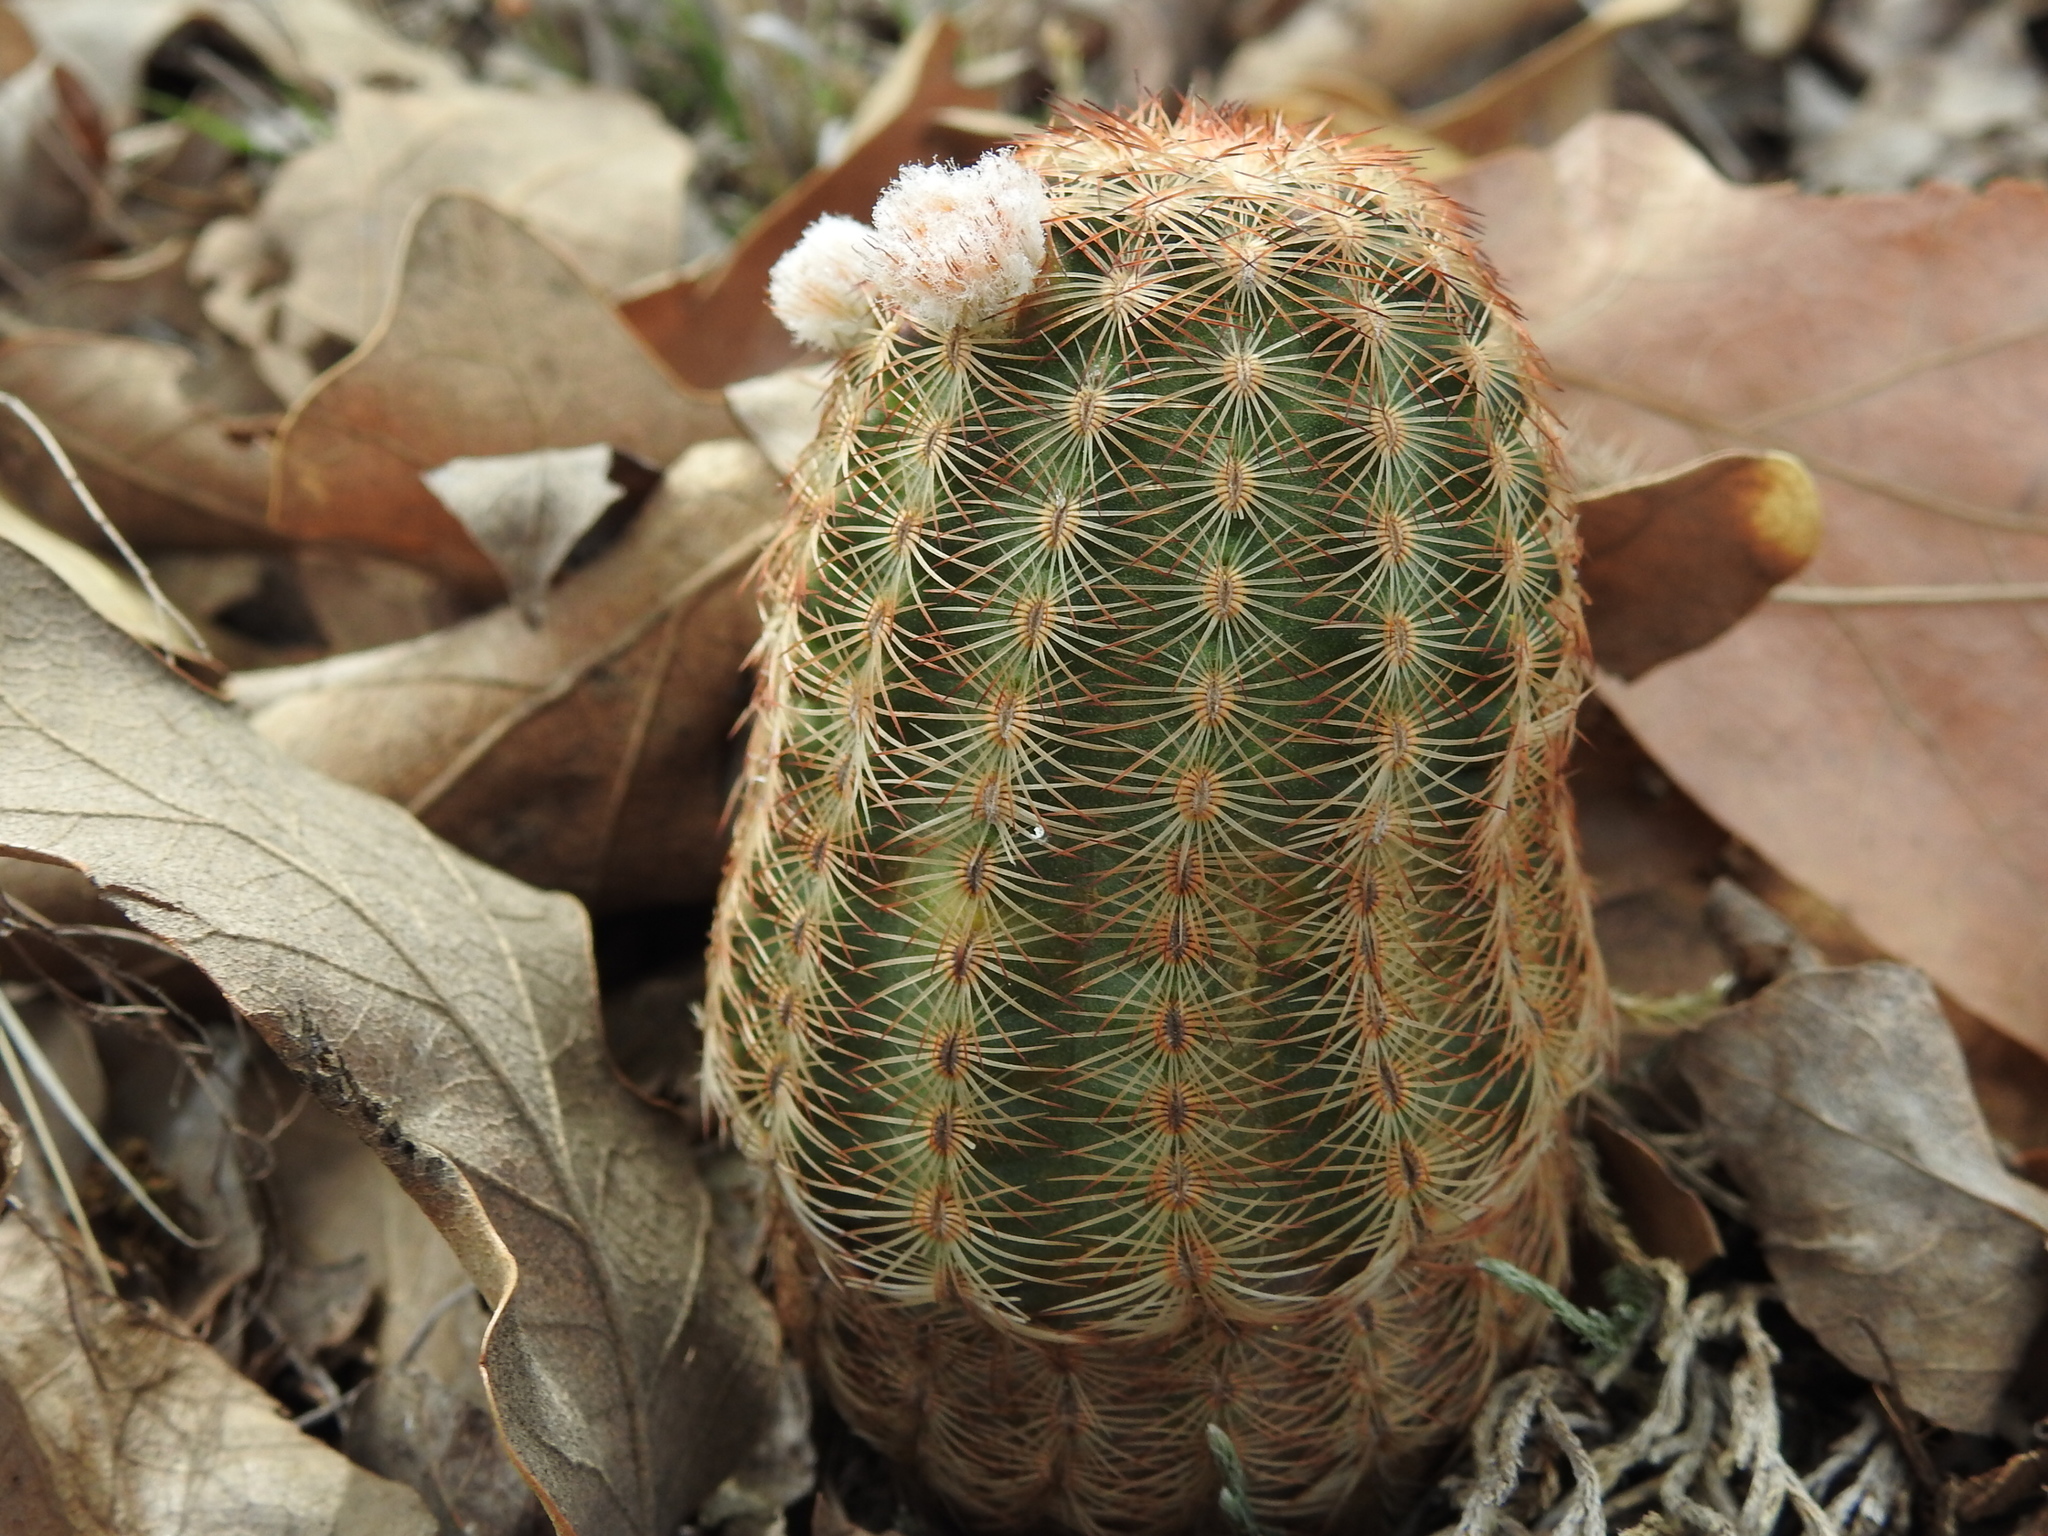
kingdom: Plantae
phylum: Tracheophyta
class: Magnoliopsida
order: Caryophyllales
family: Cactaceae
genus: Echinocereus
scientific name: Echinocereus reichenbachii
